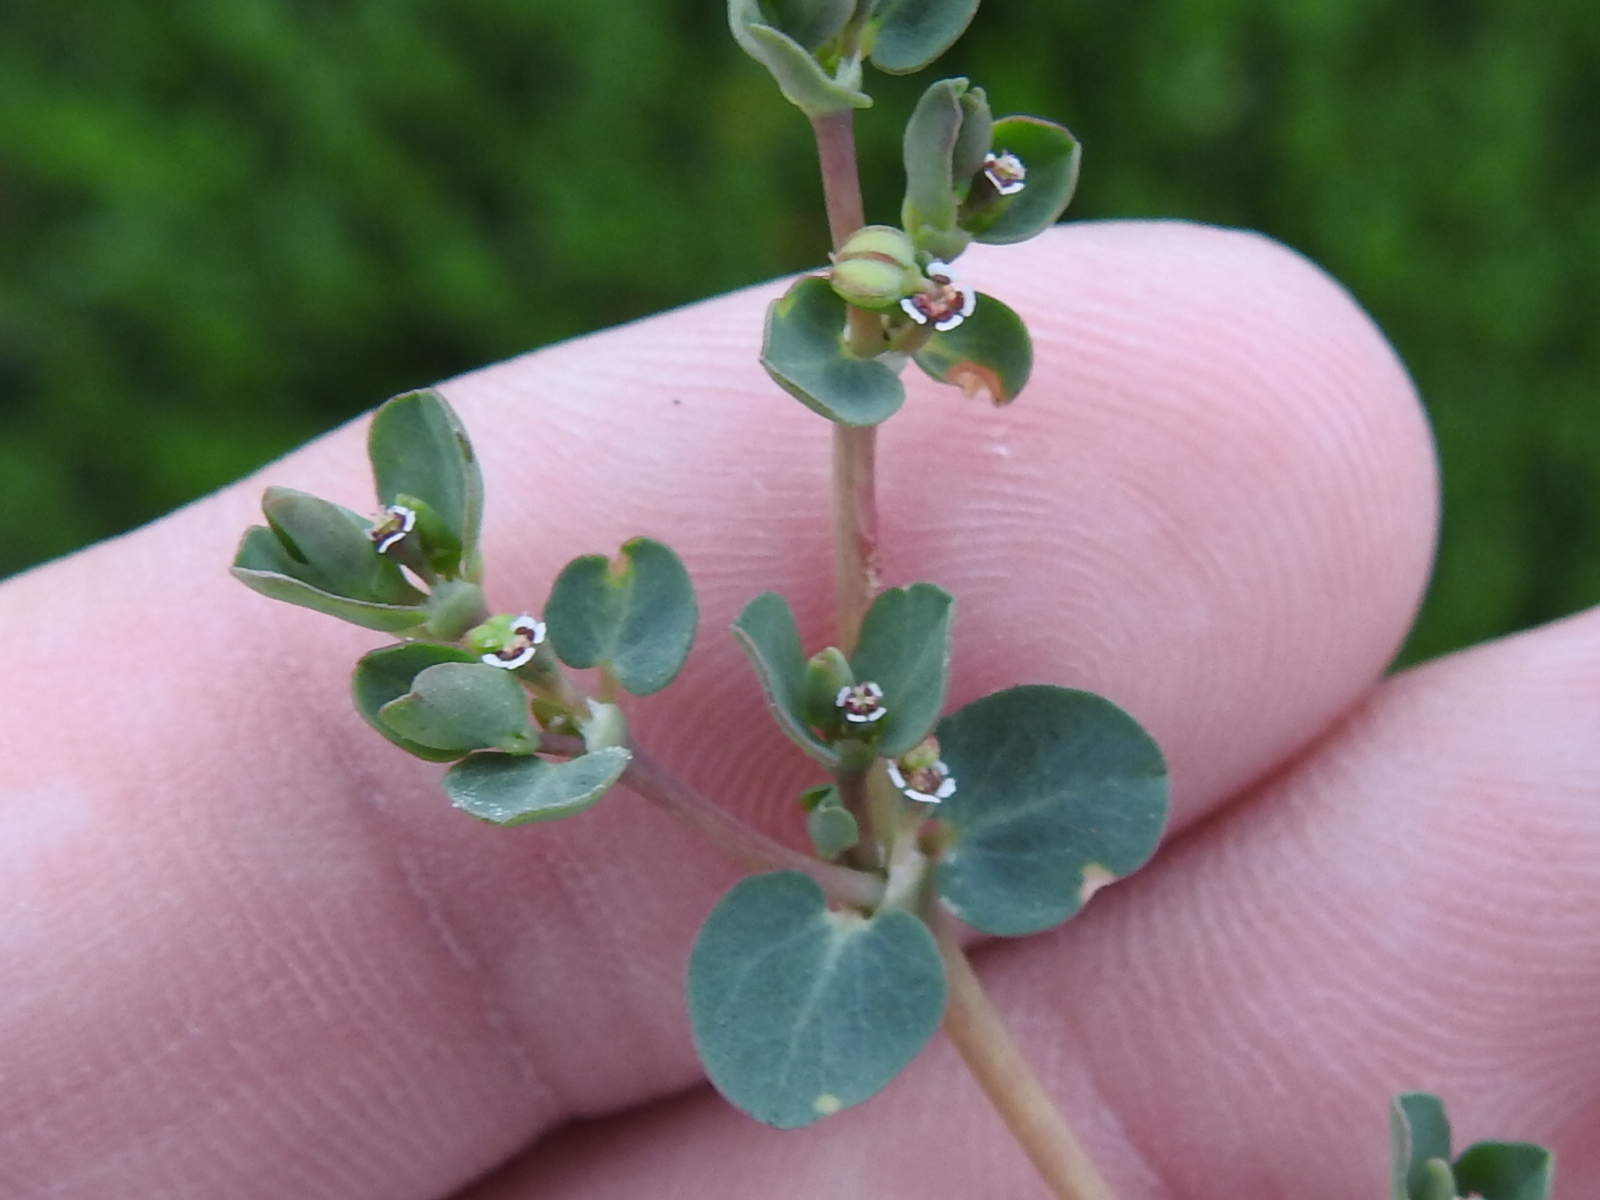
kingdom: Plantae
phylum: Tracheophyta
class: Magnoliopsida
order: Malpighiales
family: Euphorbiaceae
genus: Euphorbia
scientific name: Euphorbia serpens
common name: Matted sandmat
